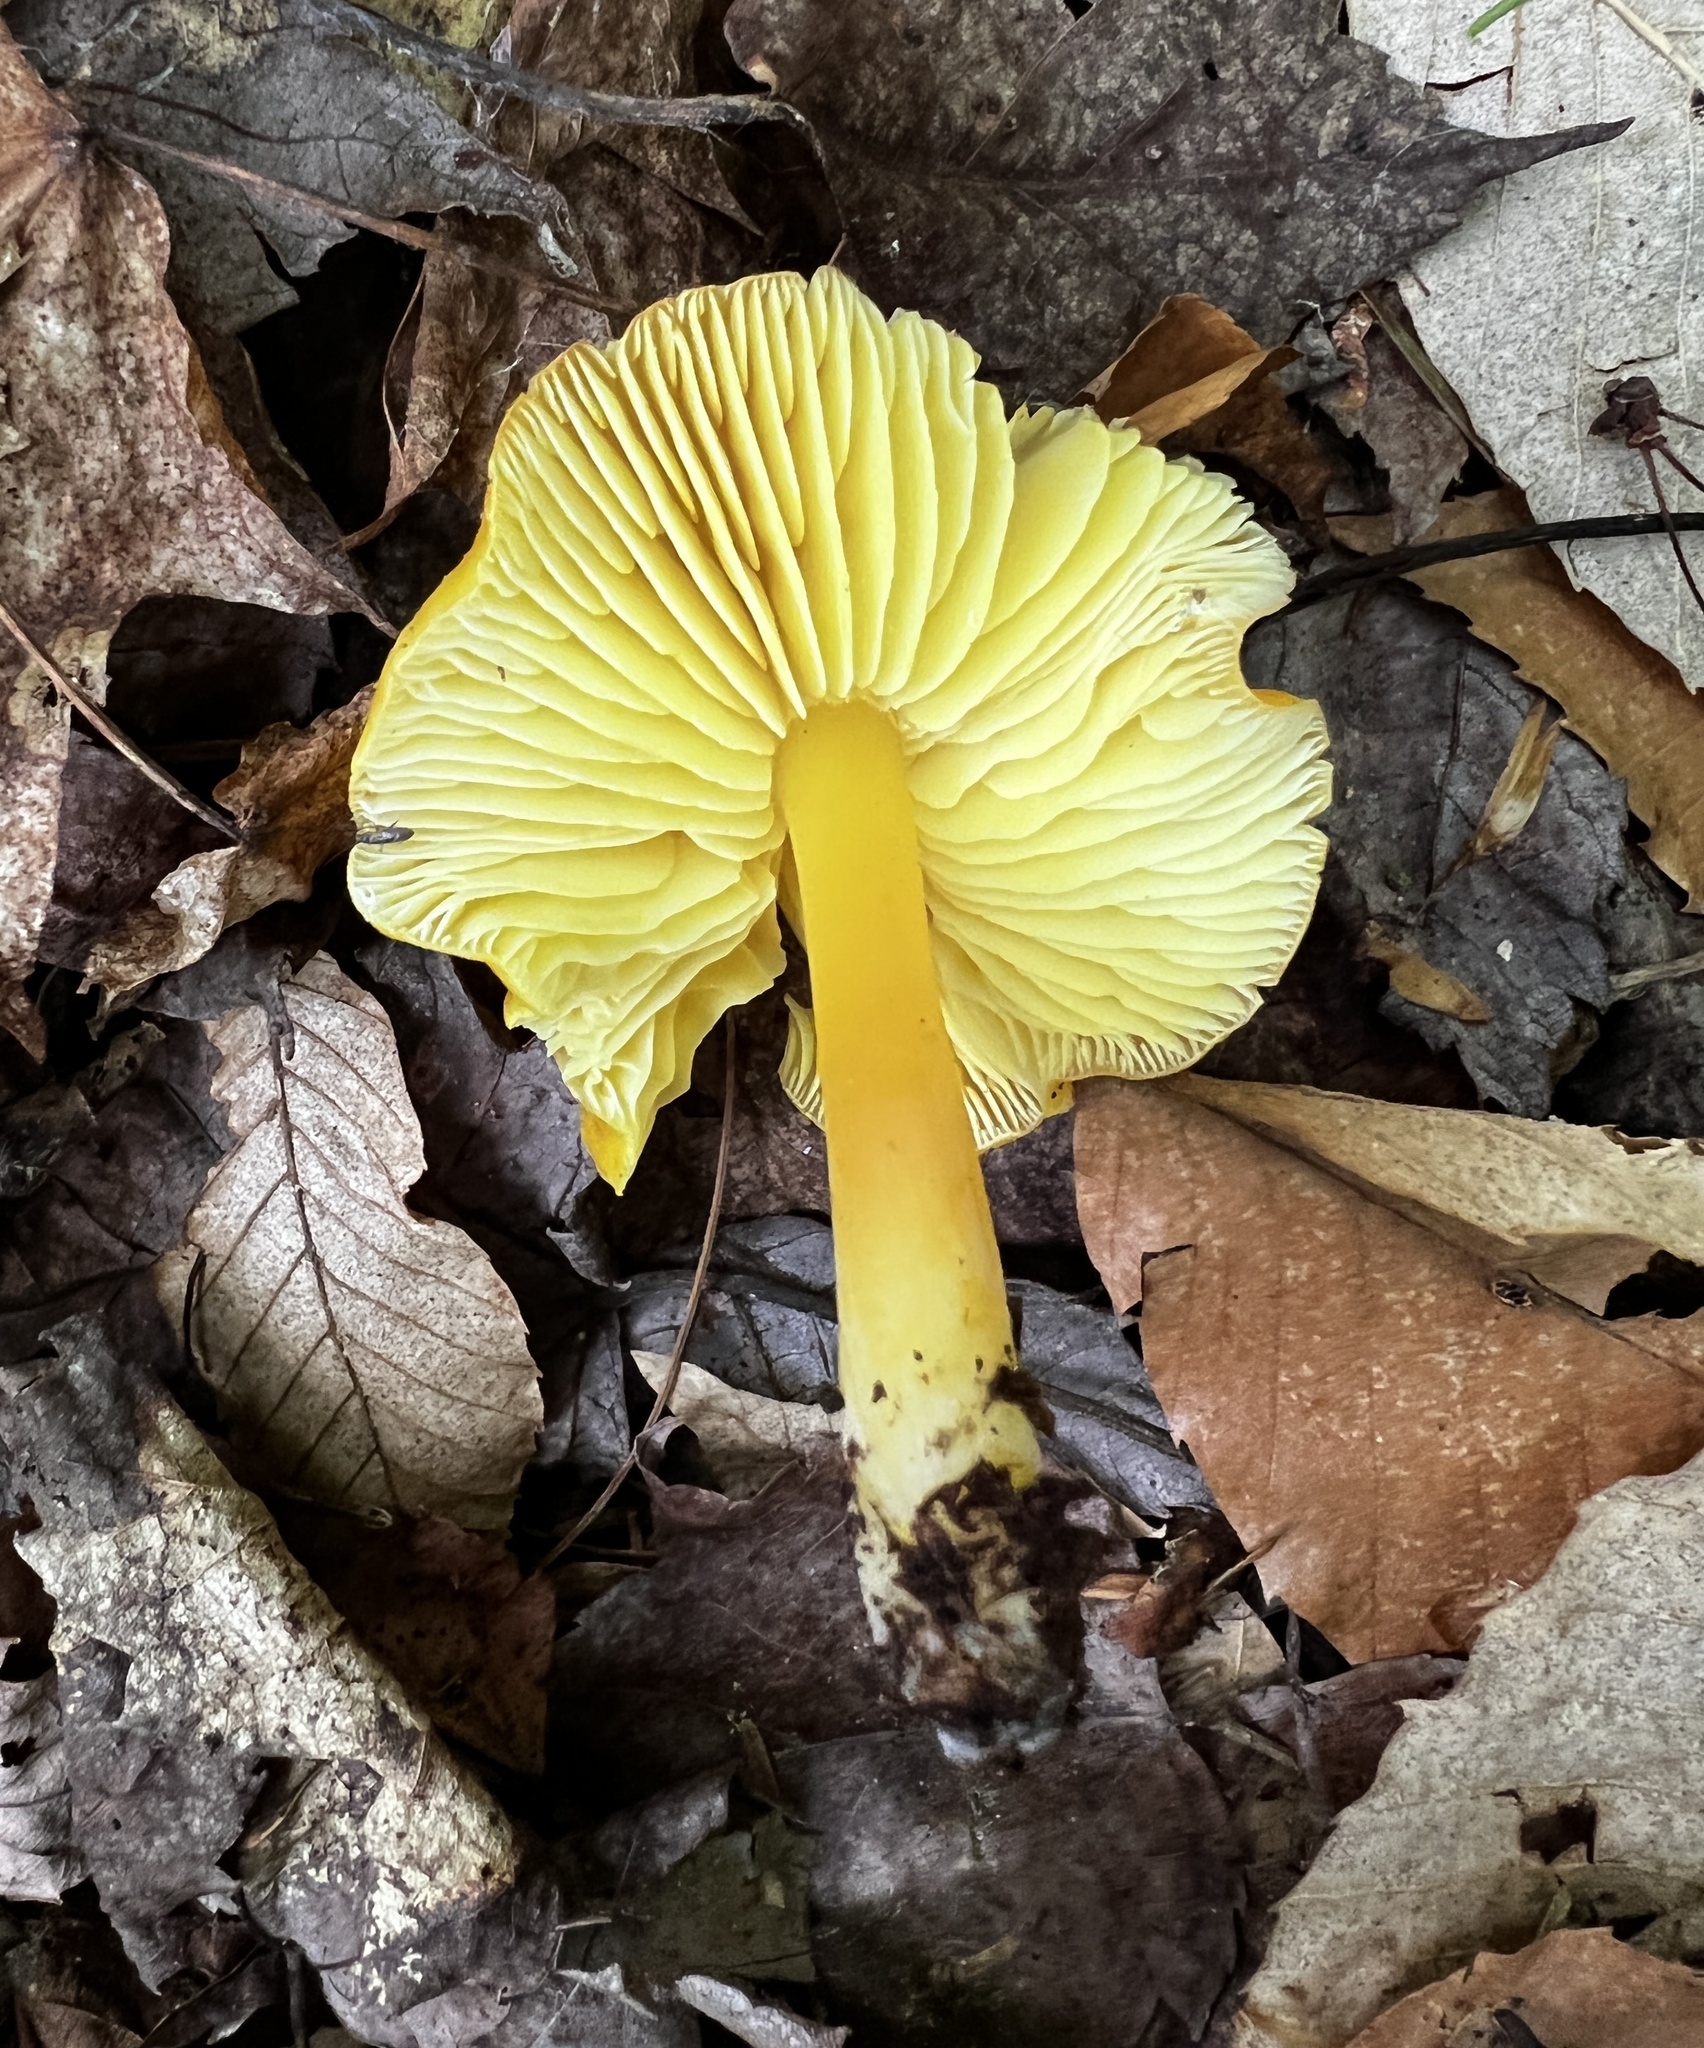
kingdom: Fungi
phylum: Basidiomycota
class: Agaricomycetes
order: Agaricales
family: Hygrophoraceae
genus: Hygrocybe
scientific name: Hygrocybe chlorophana
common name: Golden waxcap
